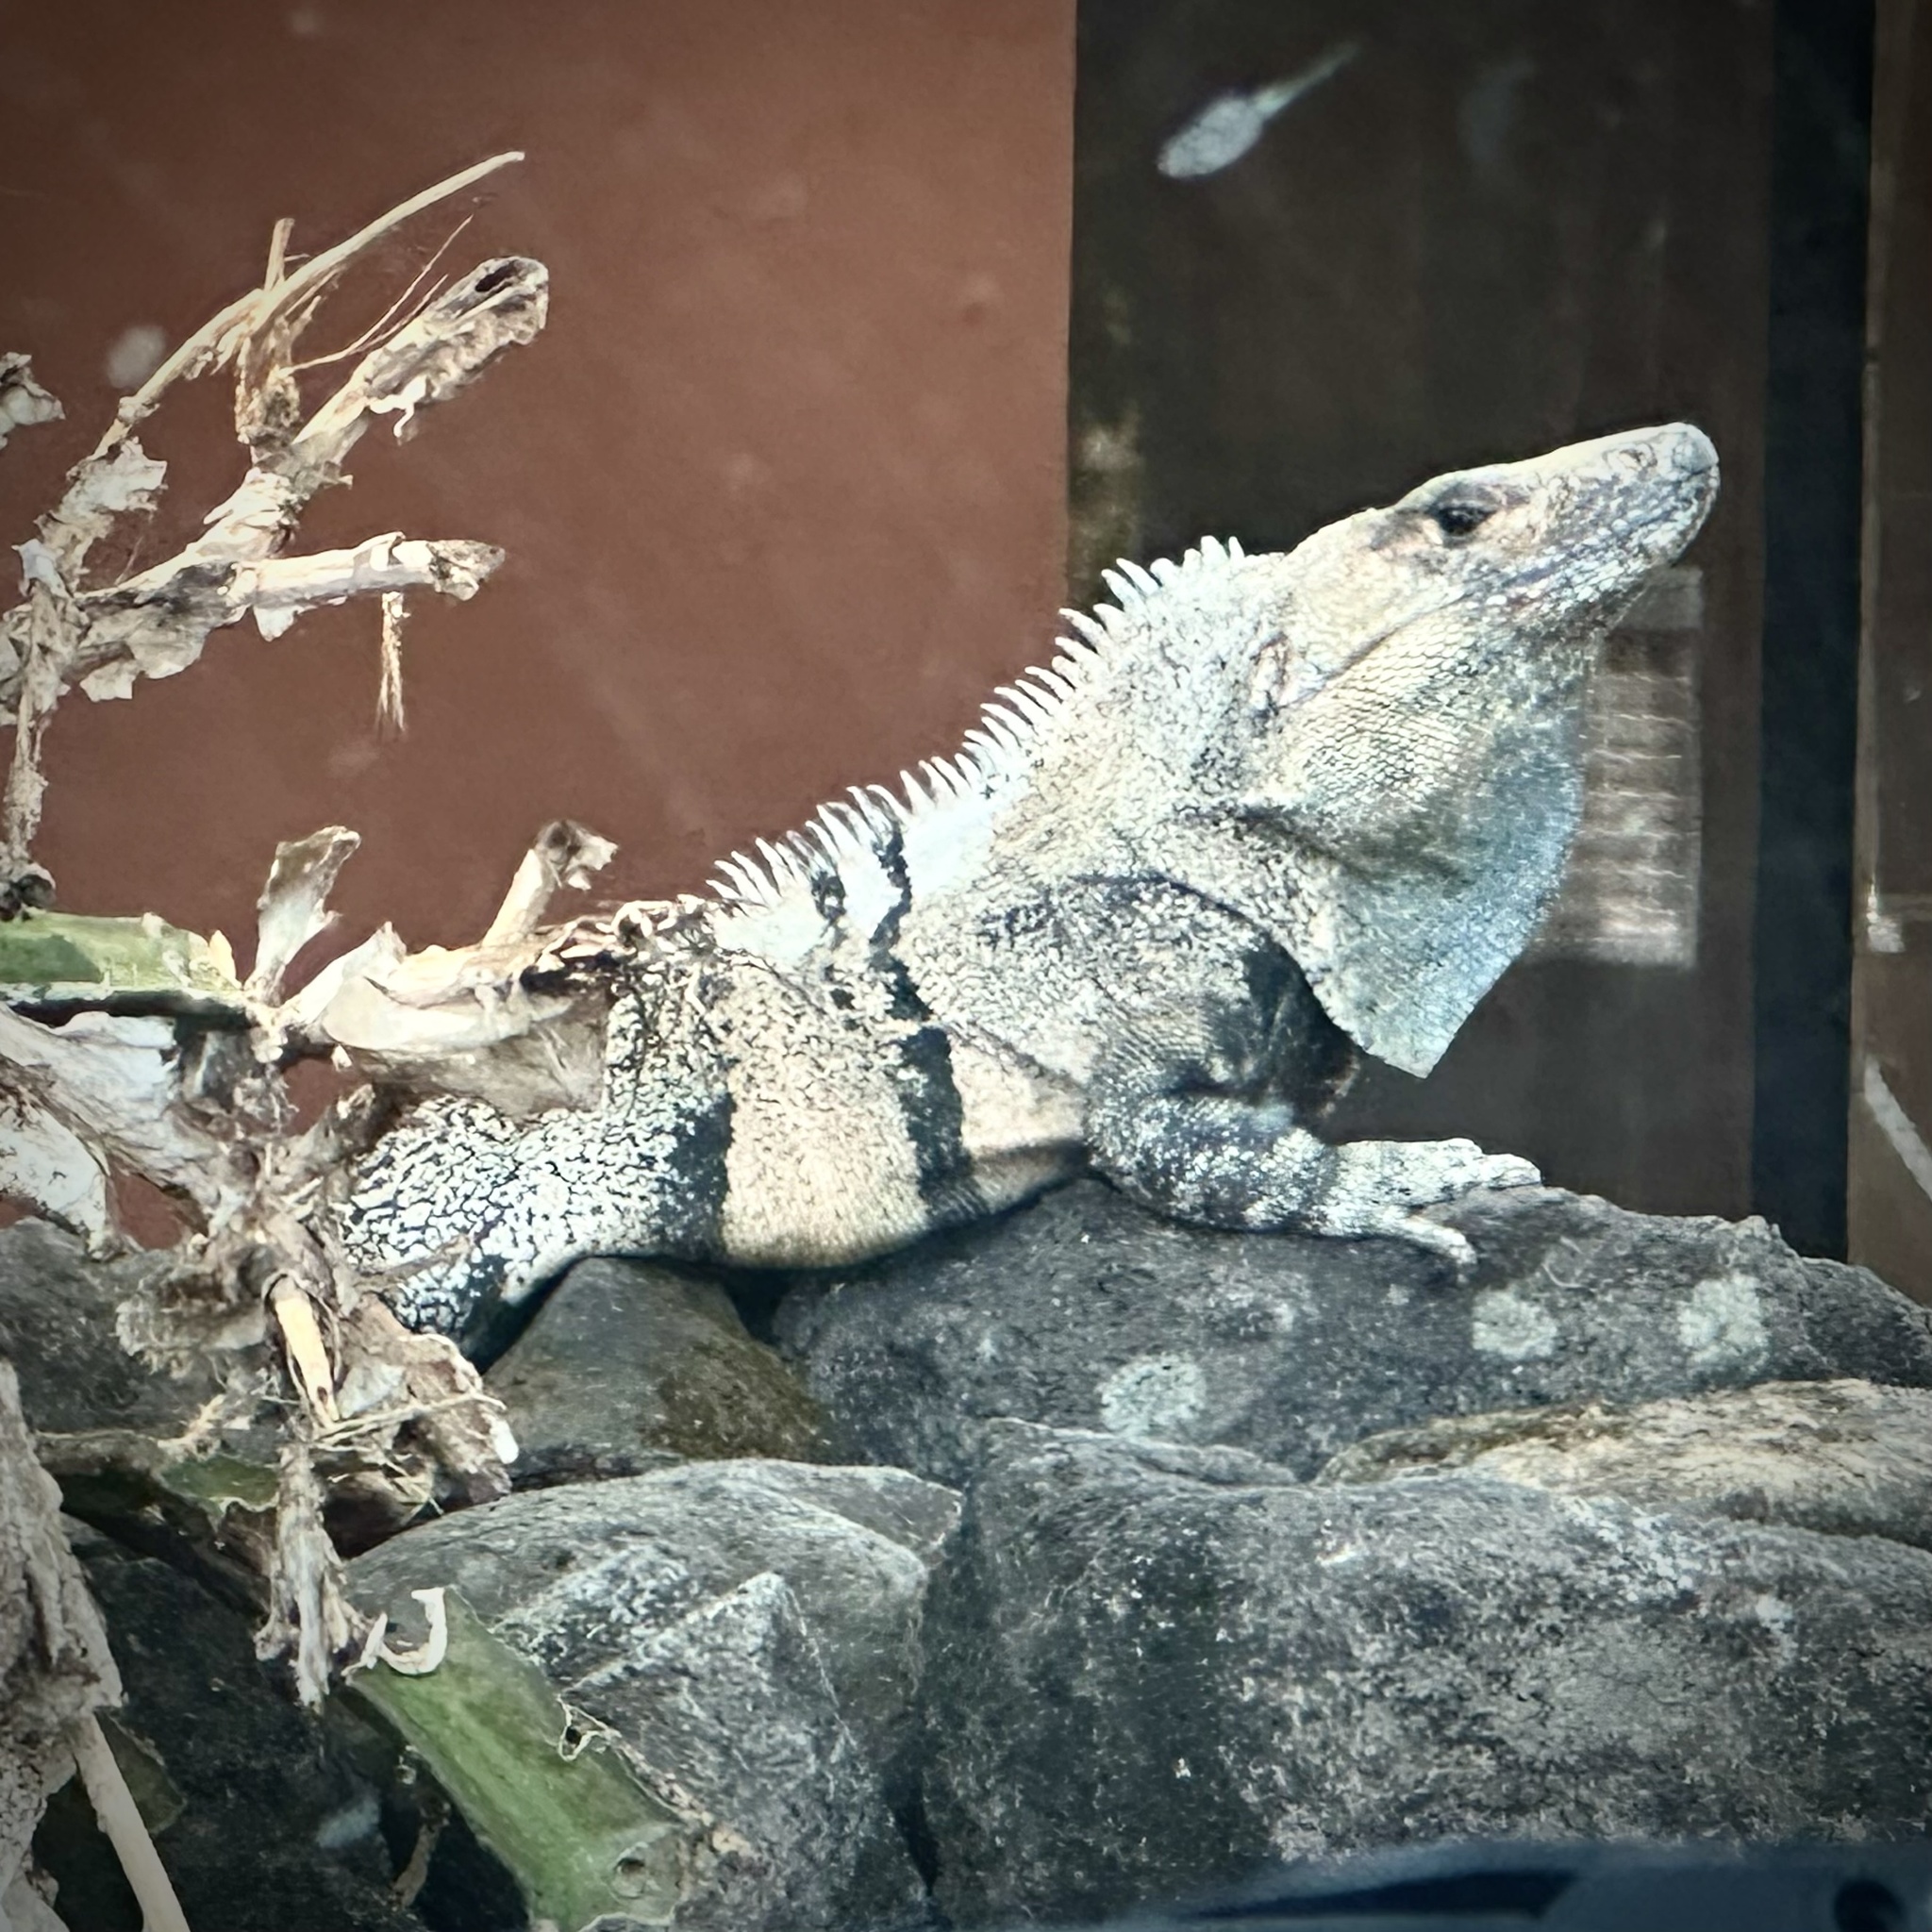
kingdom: Animalia
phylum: Chordata
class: Squamata
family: Iguanidae
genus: Ctenosaura
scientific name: Ctenosaura similis
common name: Black spiny-tailed iguana
